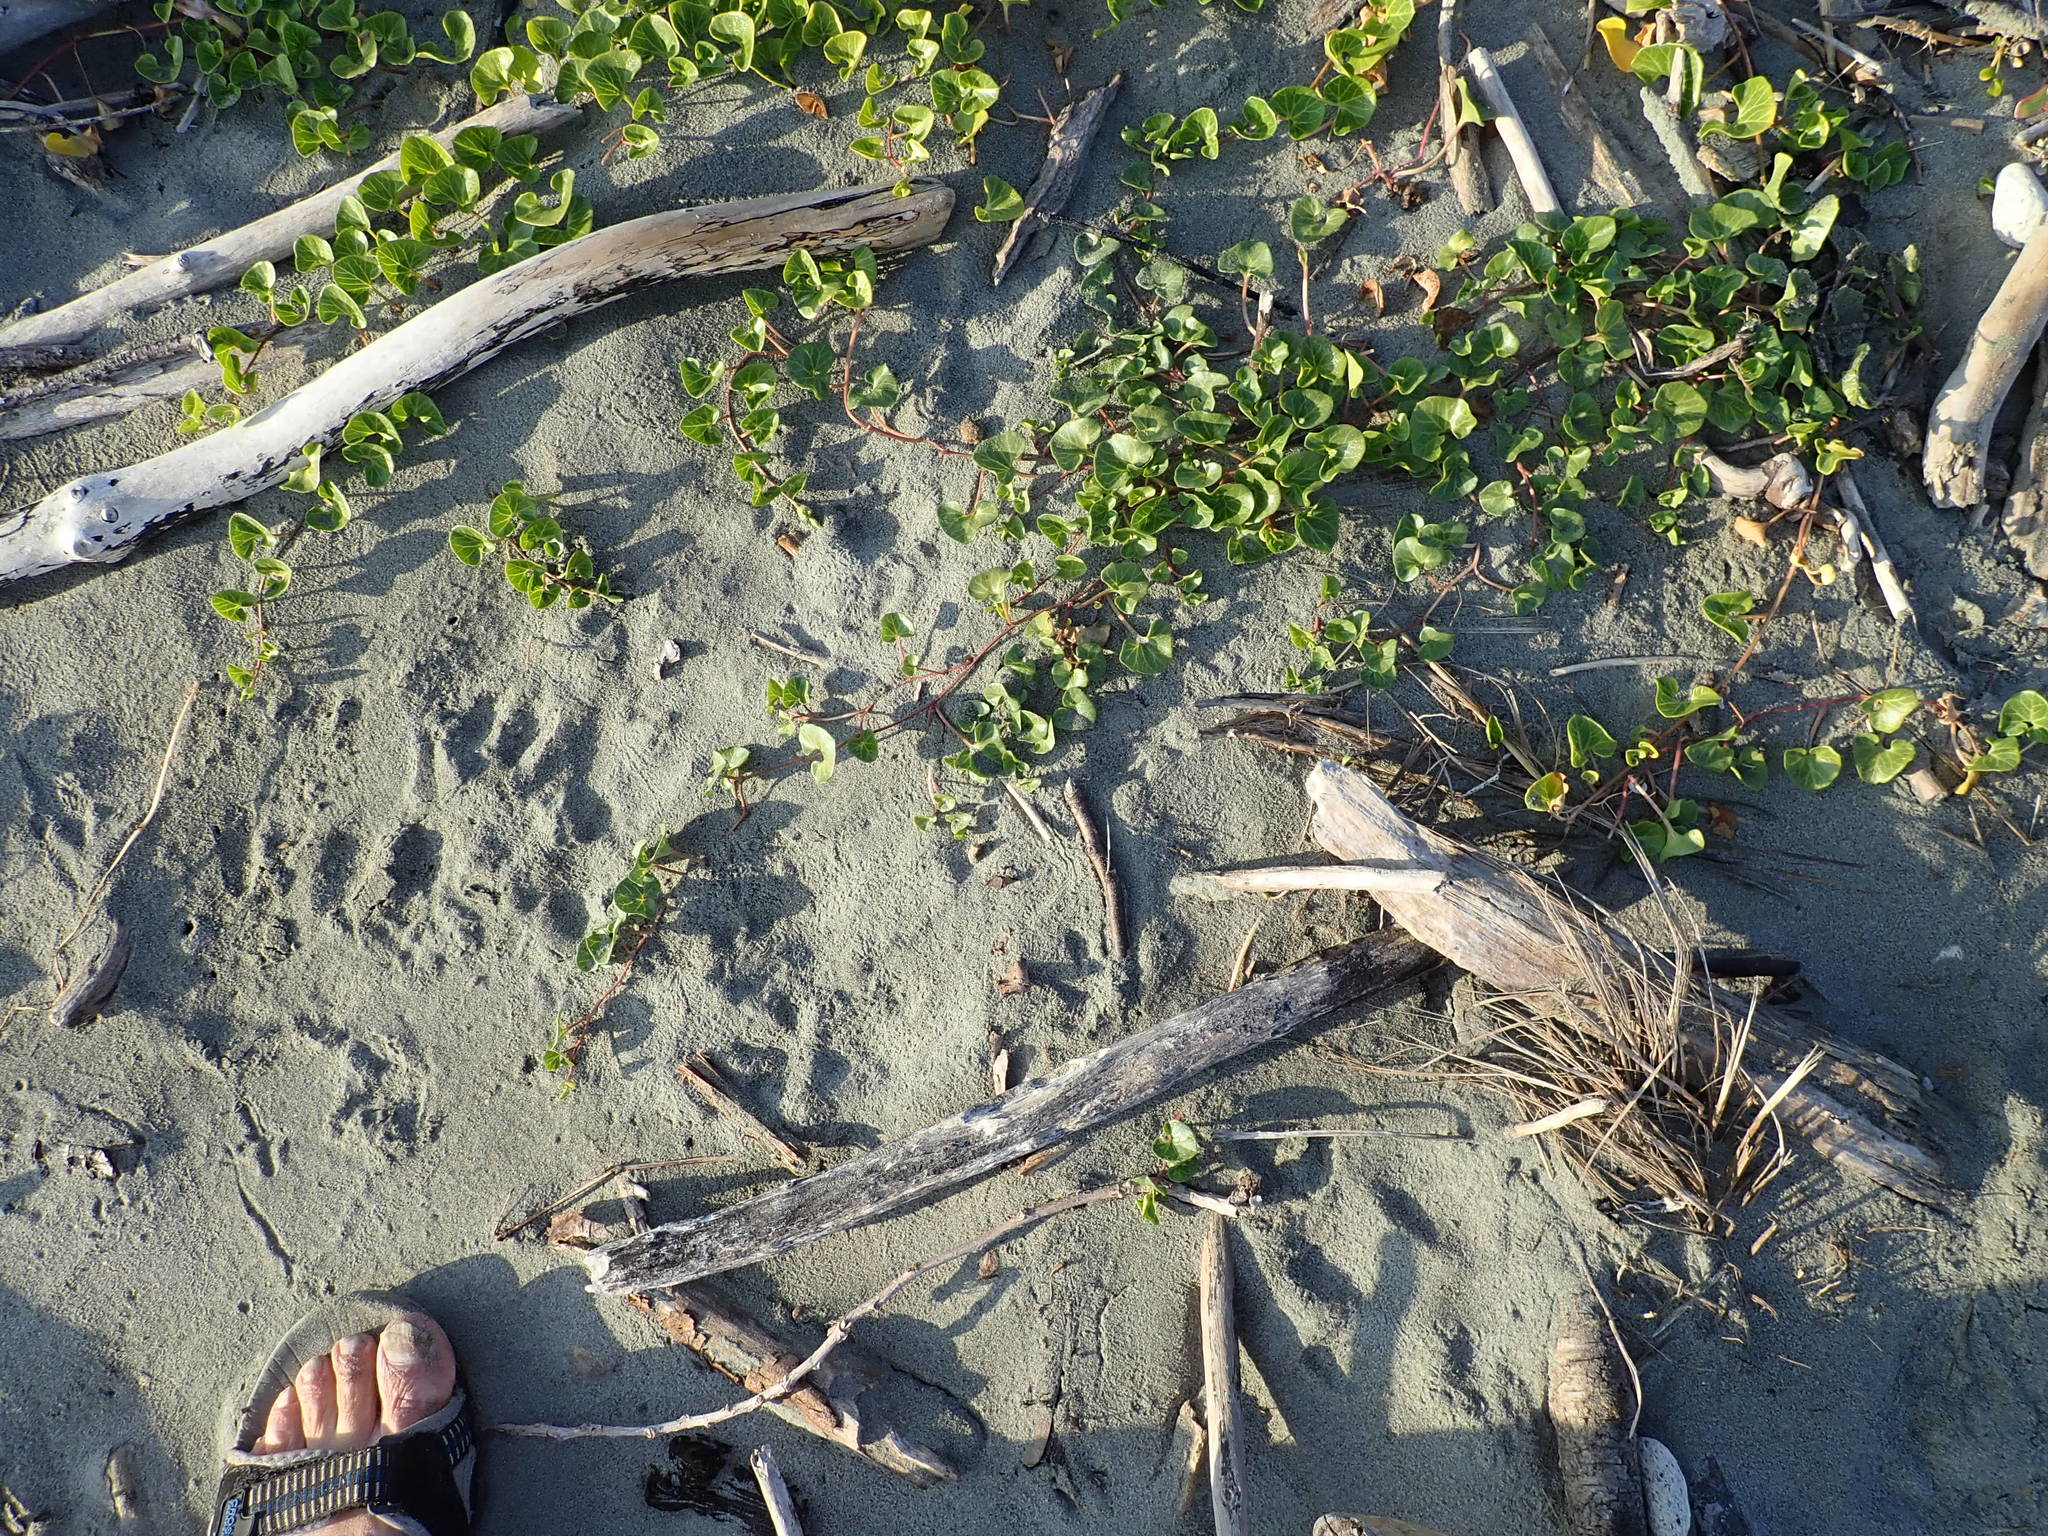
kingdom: Plantae
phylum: Tracheophyta
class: Magnoliopsida
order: Solanales
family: Convolvulaceae
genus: Calystegia
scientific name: Calystegia soldanella
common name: Sea bindweed
